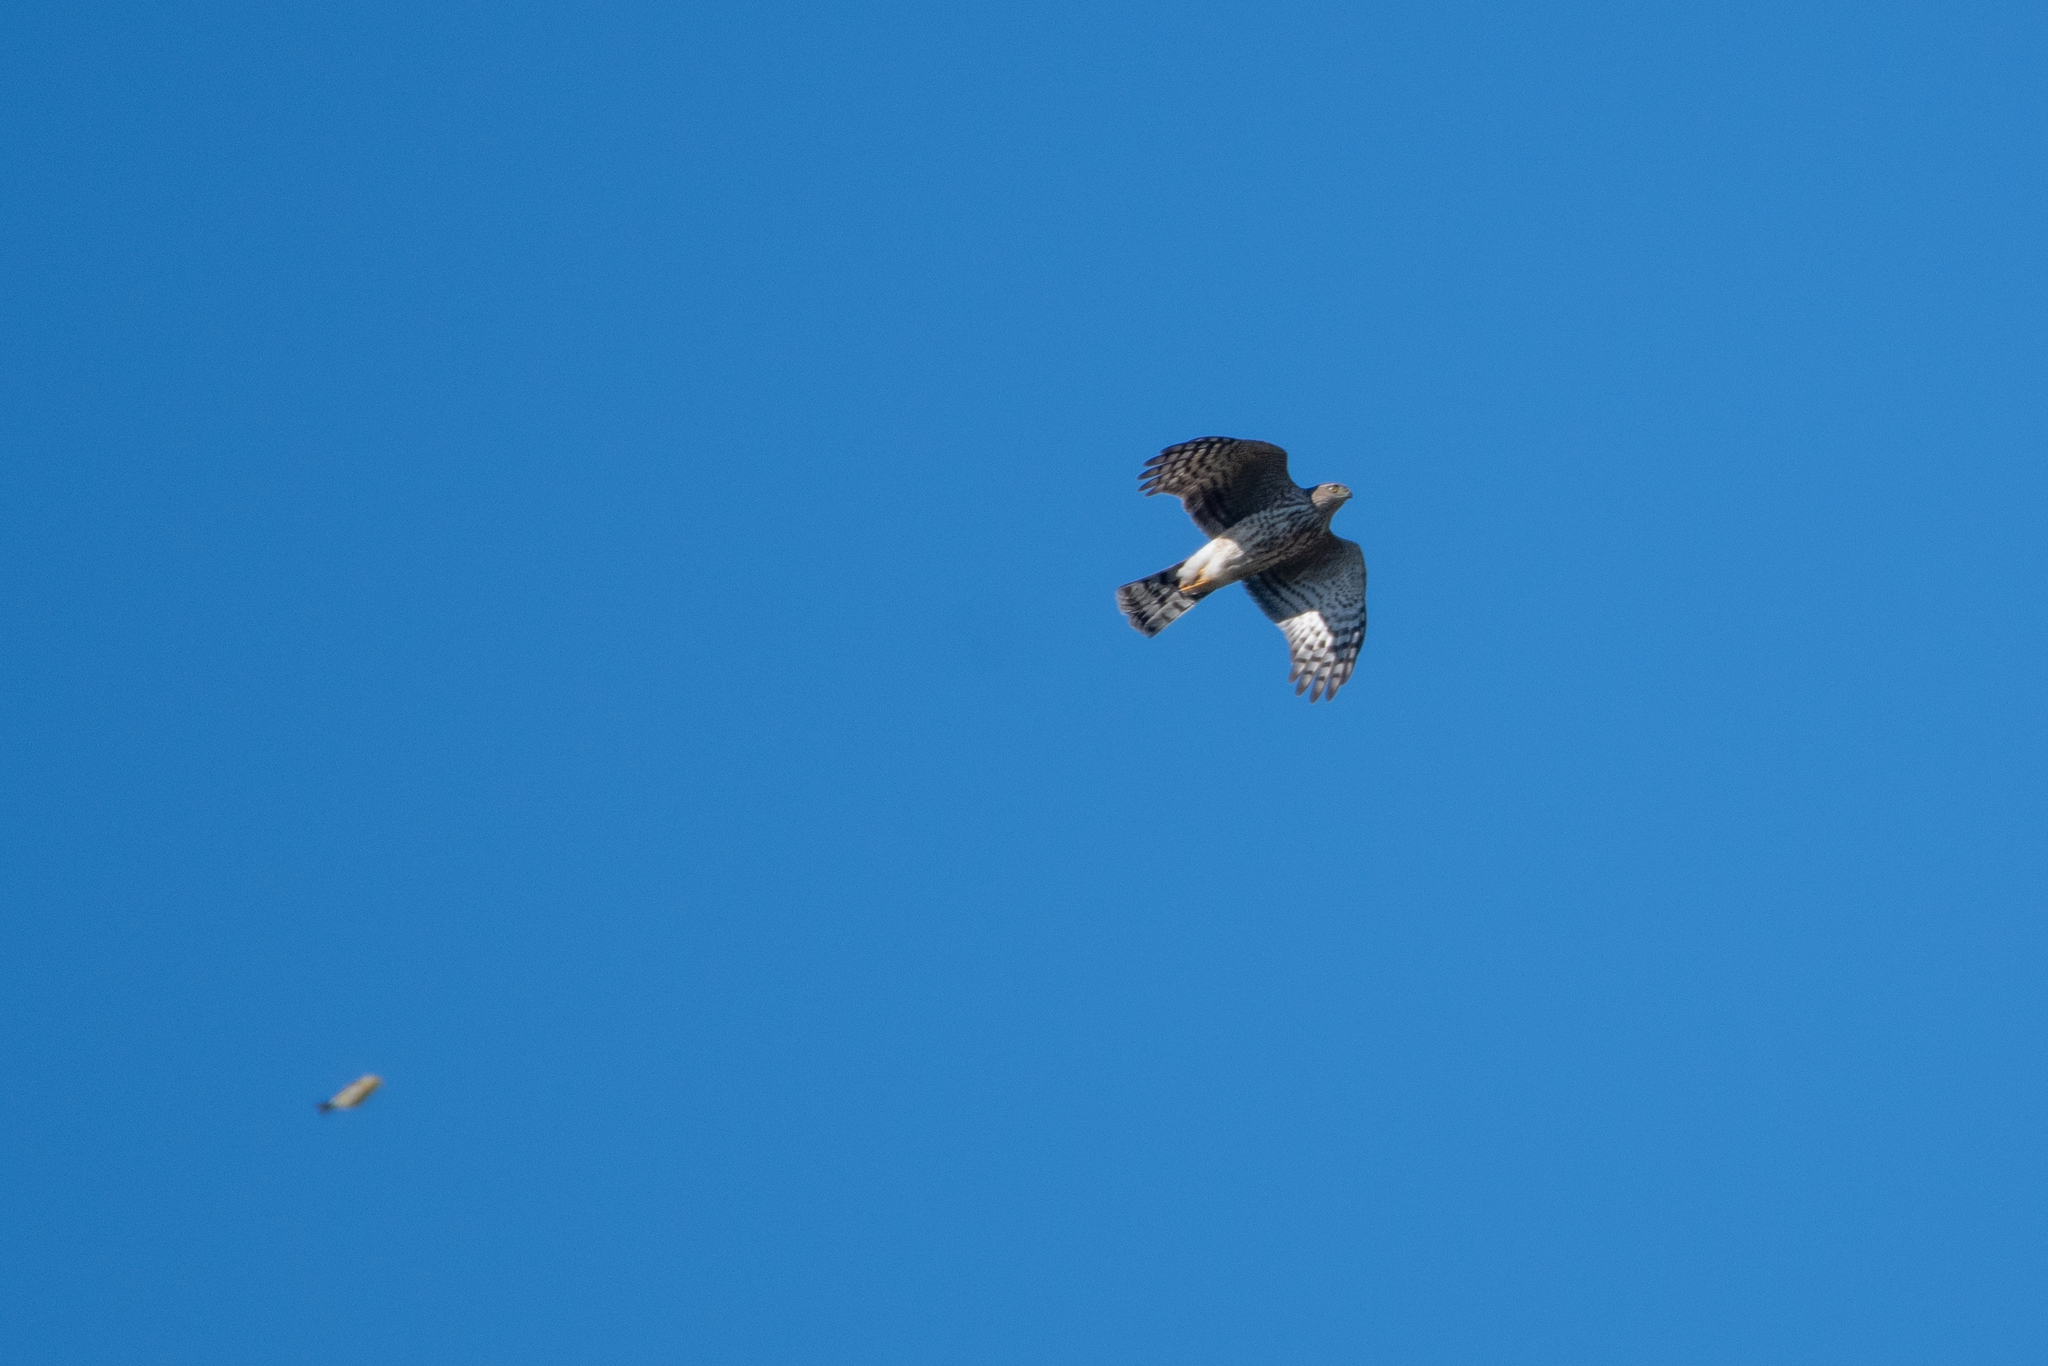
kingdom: Animalia
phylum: Chordata
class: Aves
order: Accipitriformes
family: Accipitridae
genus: Accipiter
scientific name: Accipiter striatus
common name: Sharp-shinned hawk
